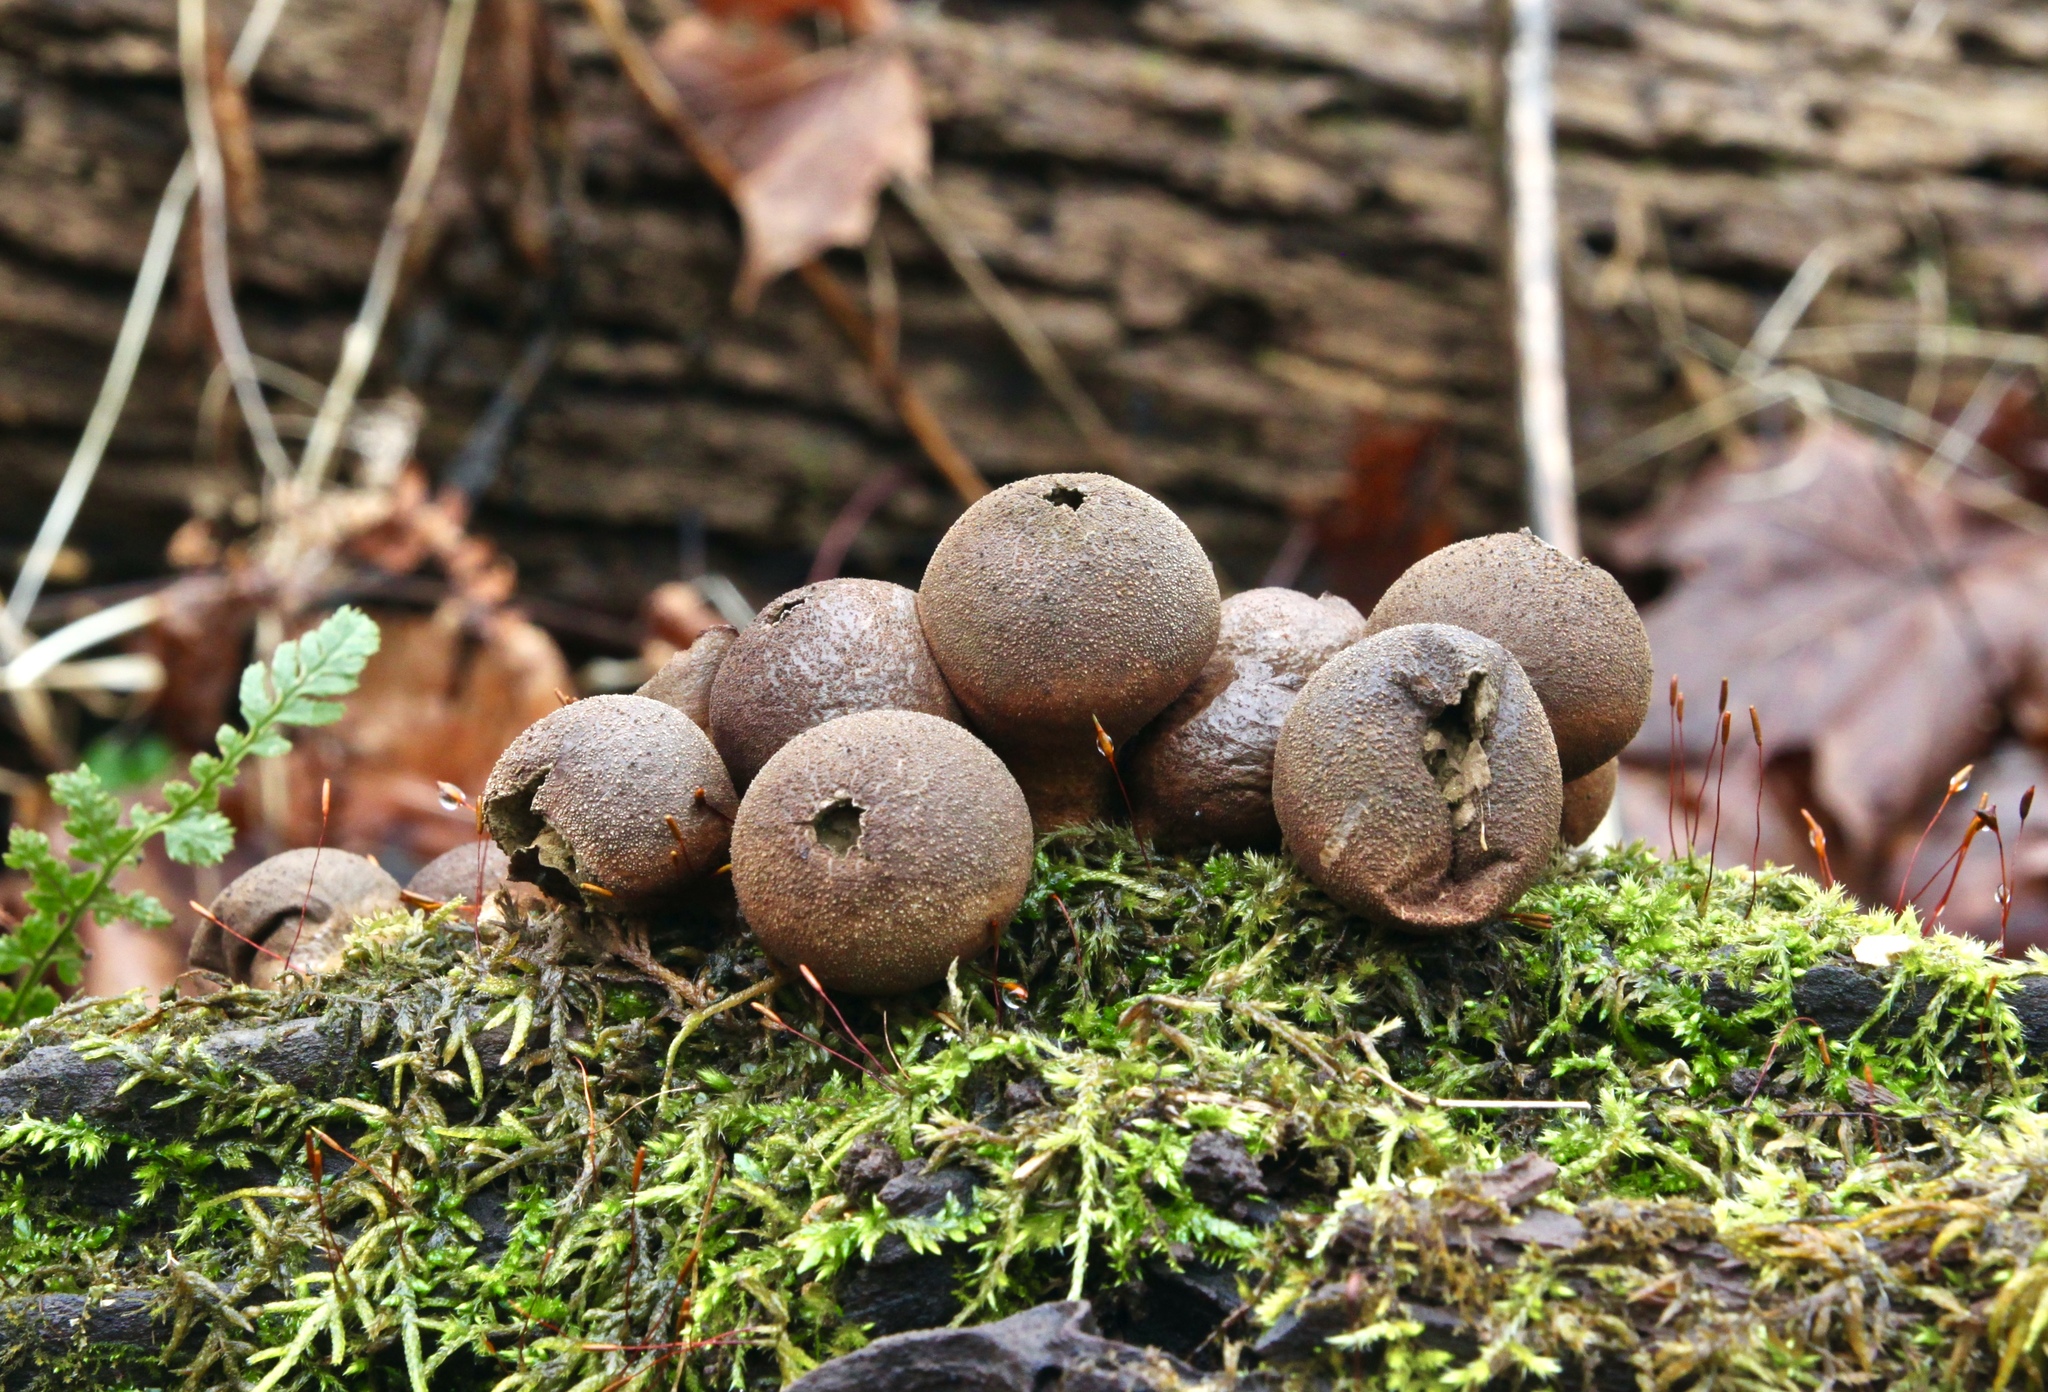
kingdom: Fungi
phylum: Basidiomycota
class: Agaricomycetes
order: Agaricales
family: Lycoperdaceae
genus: Apioperdon
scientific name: Apioperdon pyriforme
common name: Pear-shaped puffball
